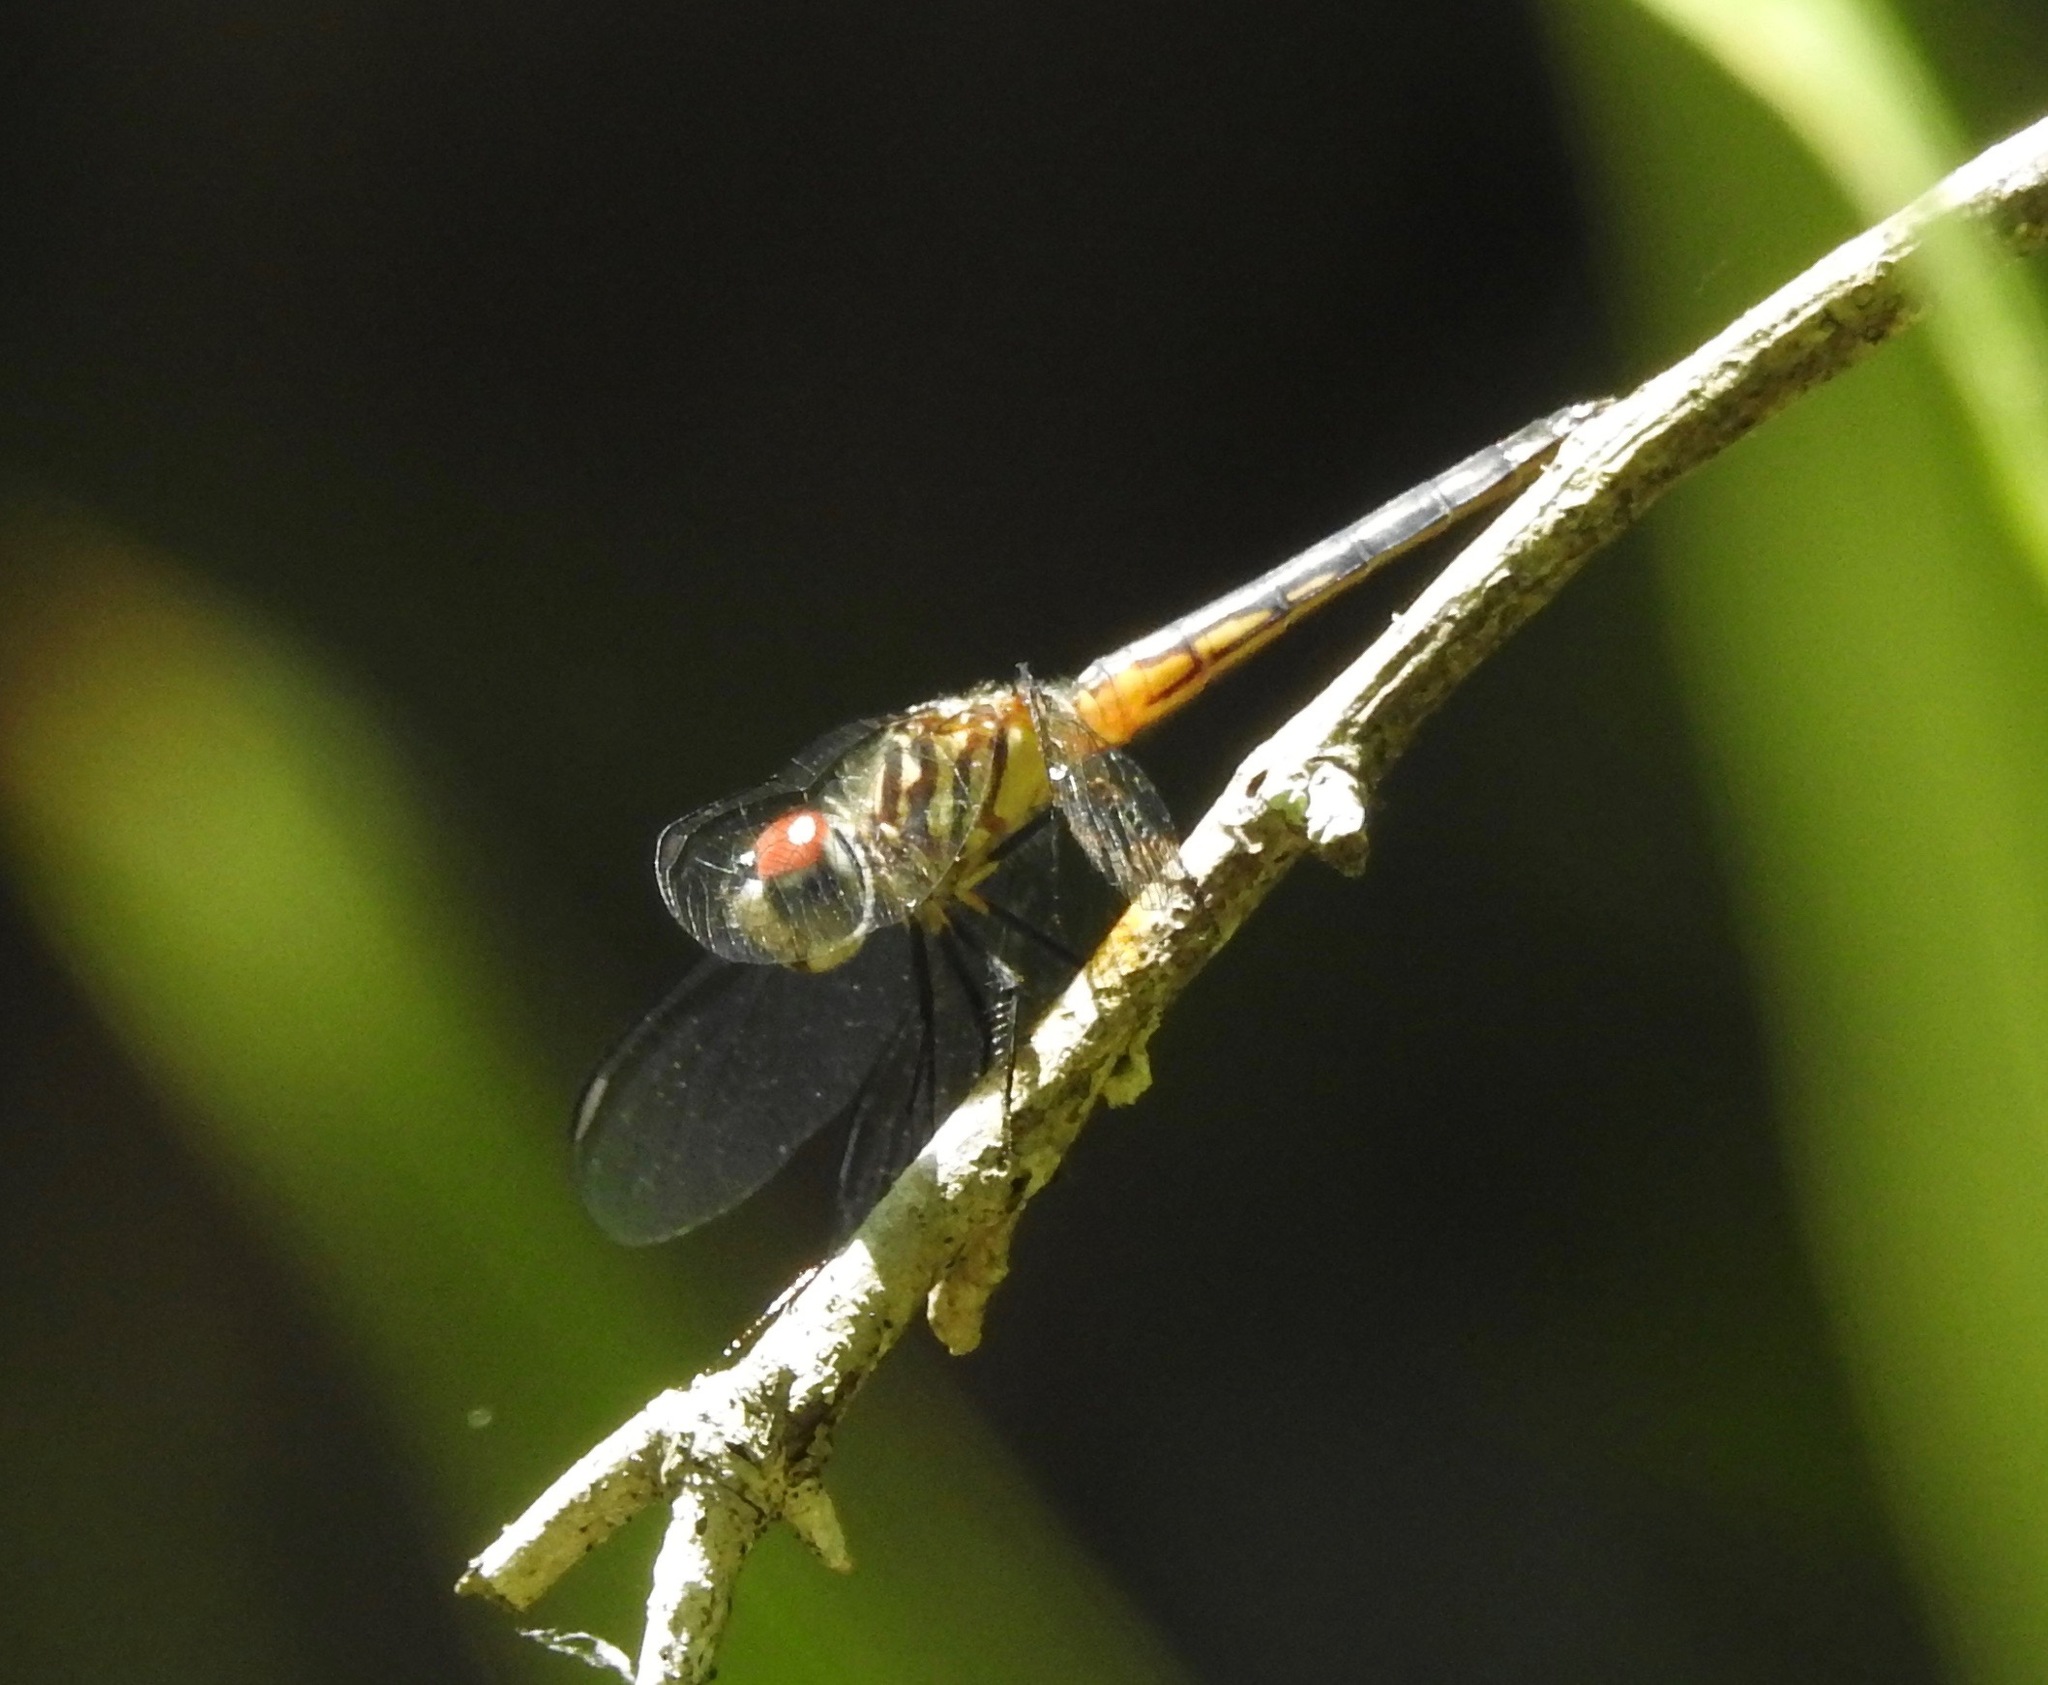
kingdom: Animalia
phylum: Arthropoda
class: Insecta
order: Odonata
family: Libellulidae
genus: Pachydiplax
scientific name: Pachydiplax longipennis
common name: Blue dasher
